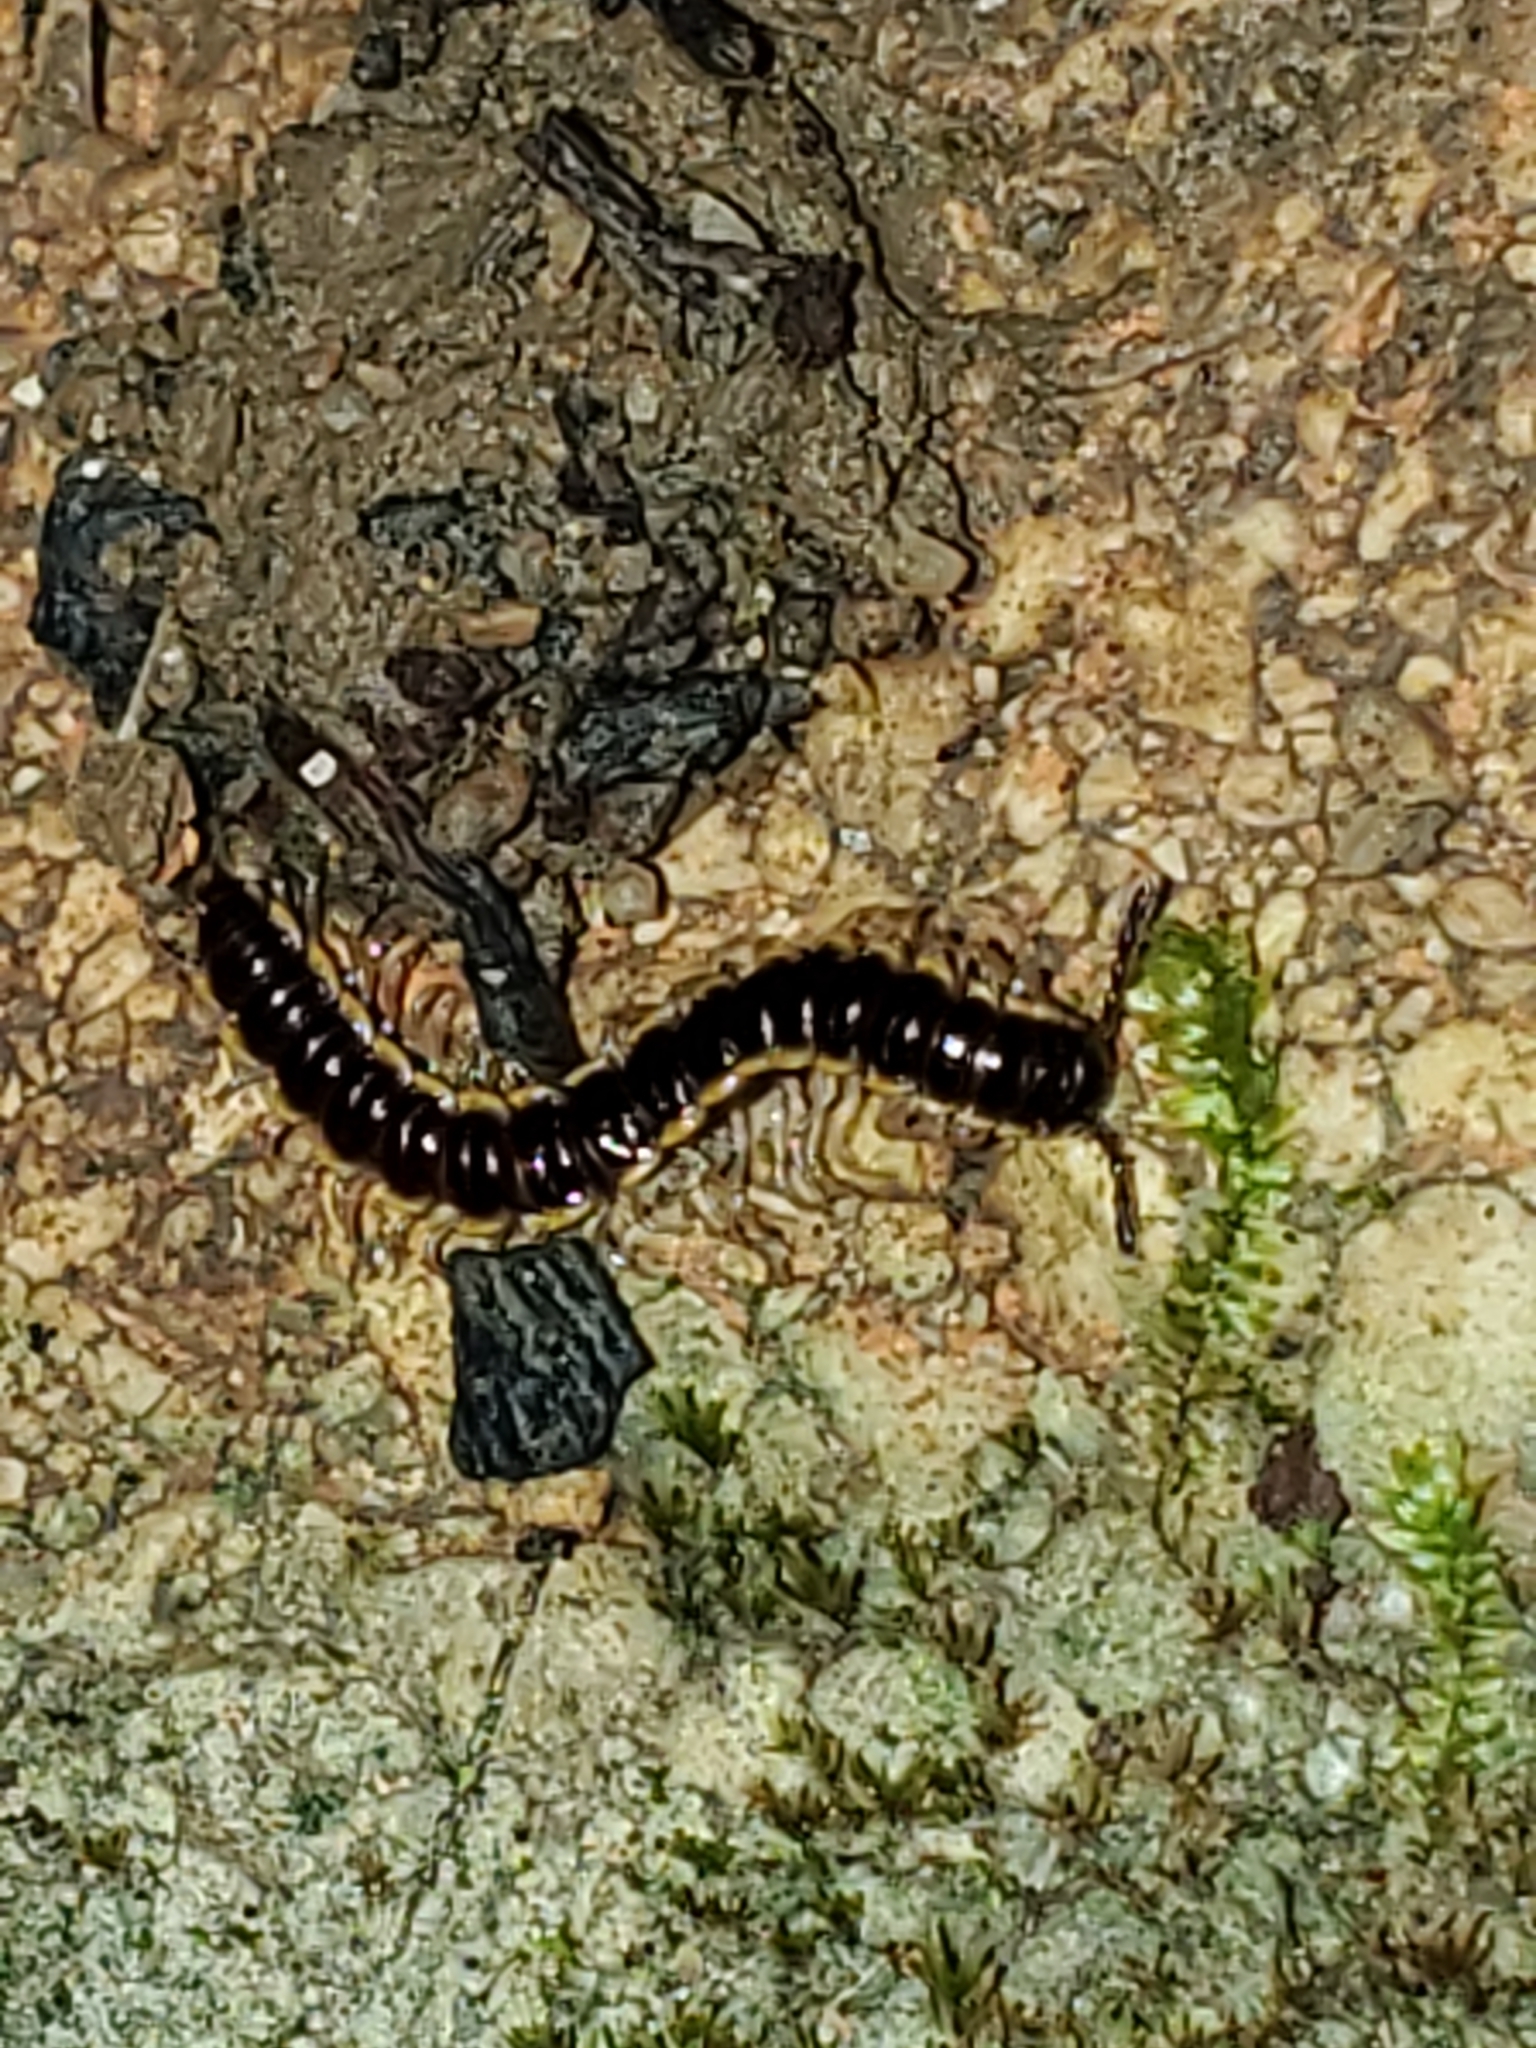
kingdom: Animalia
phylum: Arthropoda
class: Diplopoda
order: Polydesmida
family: Paradoxosomatidae
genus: Orthomorpha
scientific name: Orthomorpha coarctata
